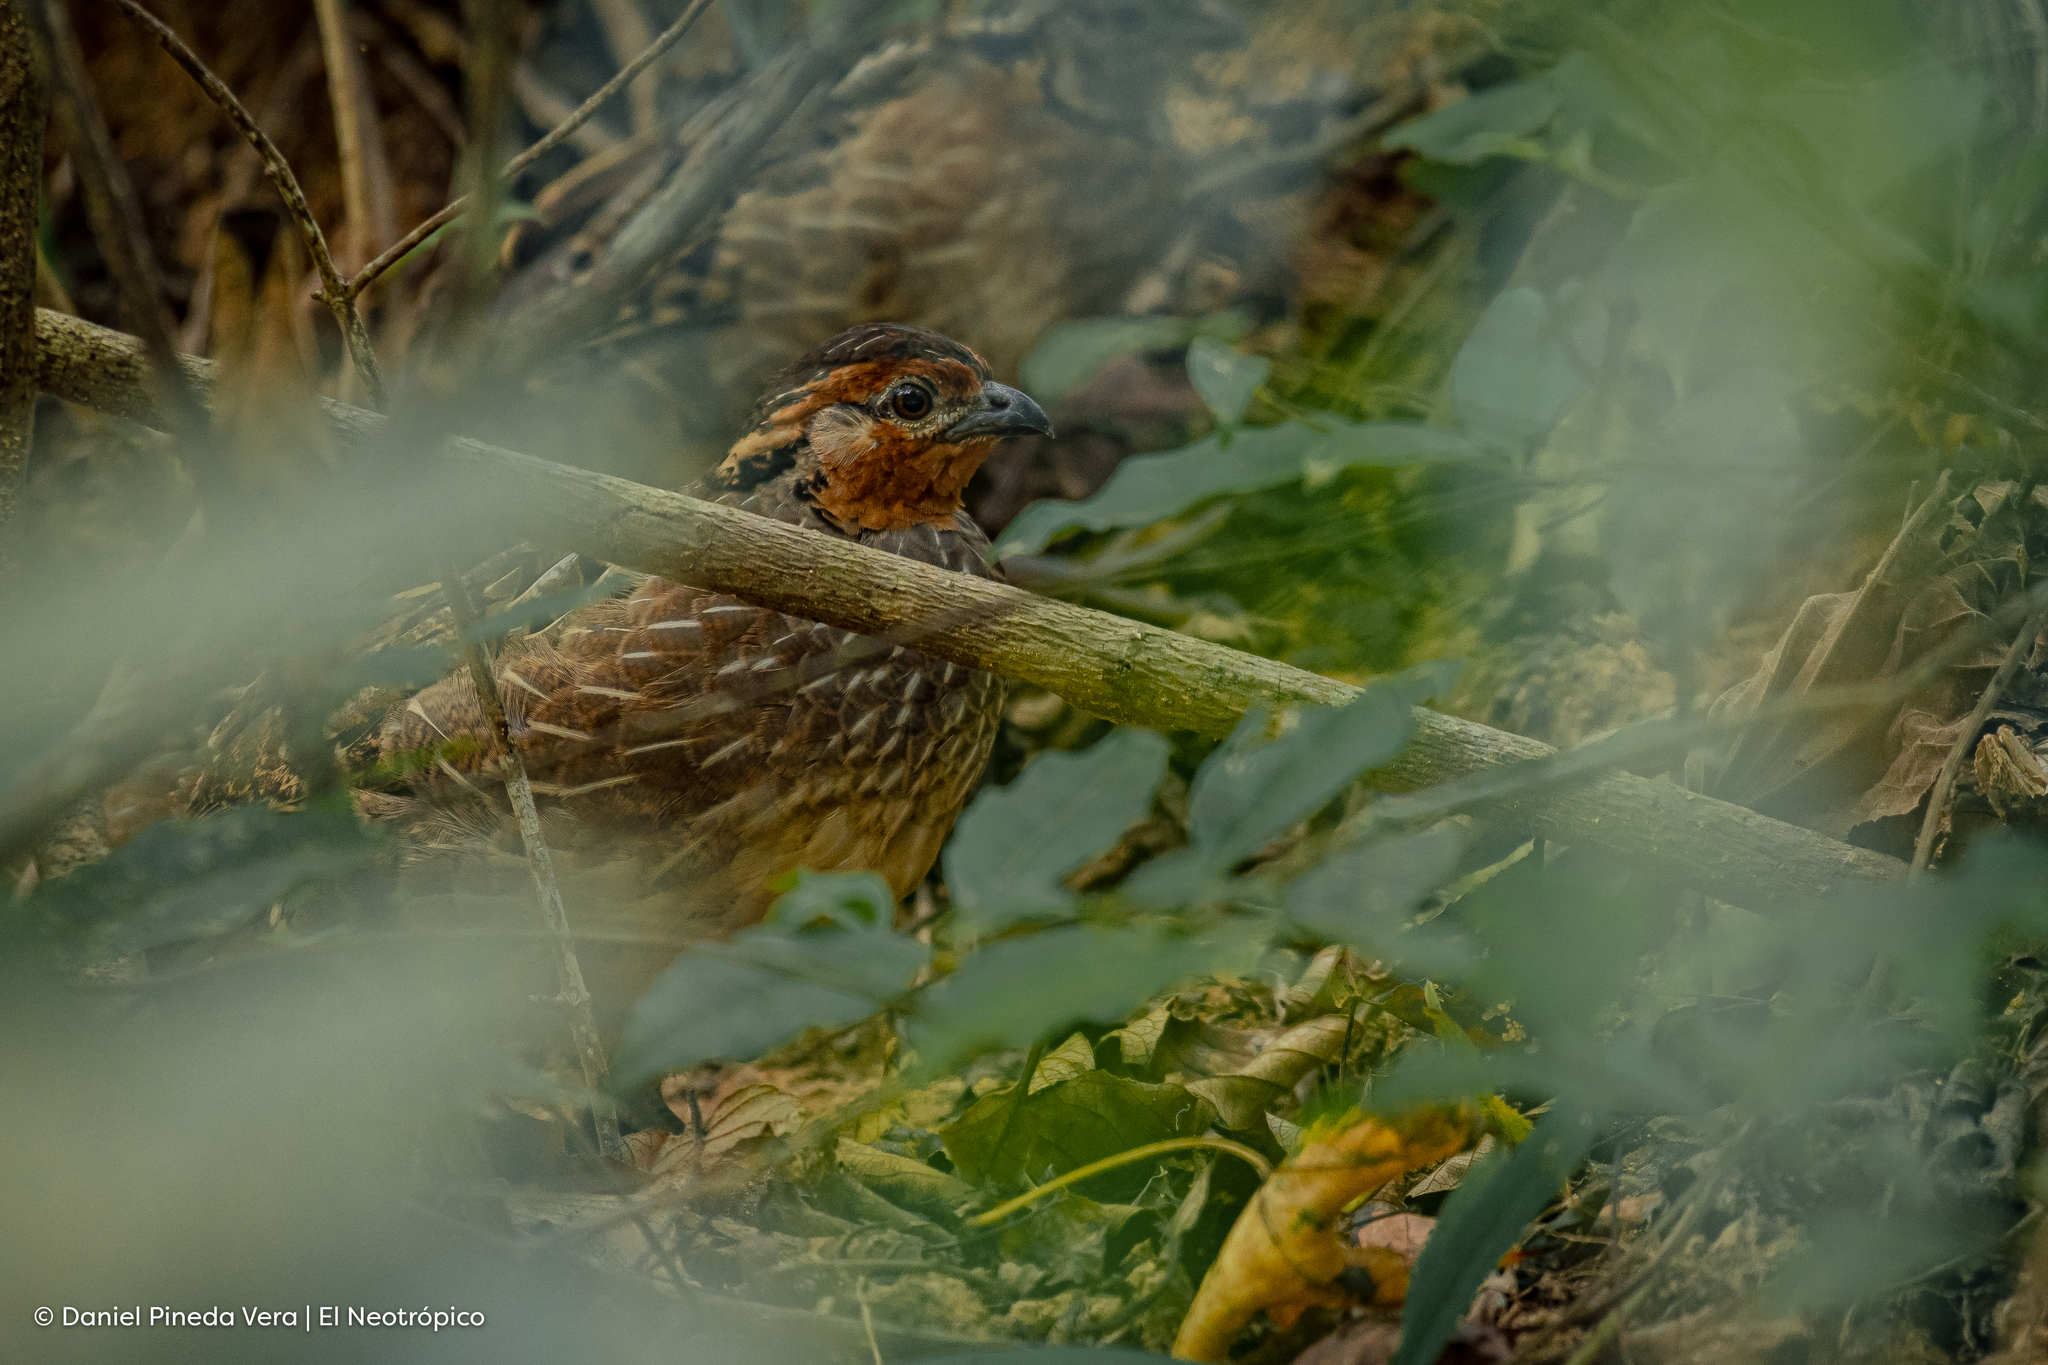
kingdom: Animalia
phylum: Chordata
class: Aves
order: Galliformes
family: Odontophoridae
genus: Dactylortyx
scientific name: Dactylortyx thoracicus
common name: Singing quail
